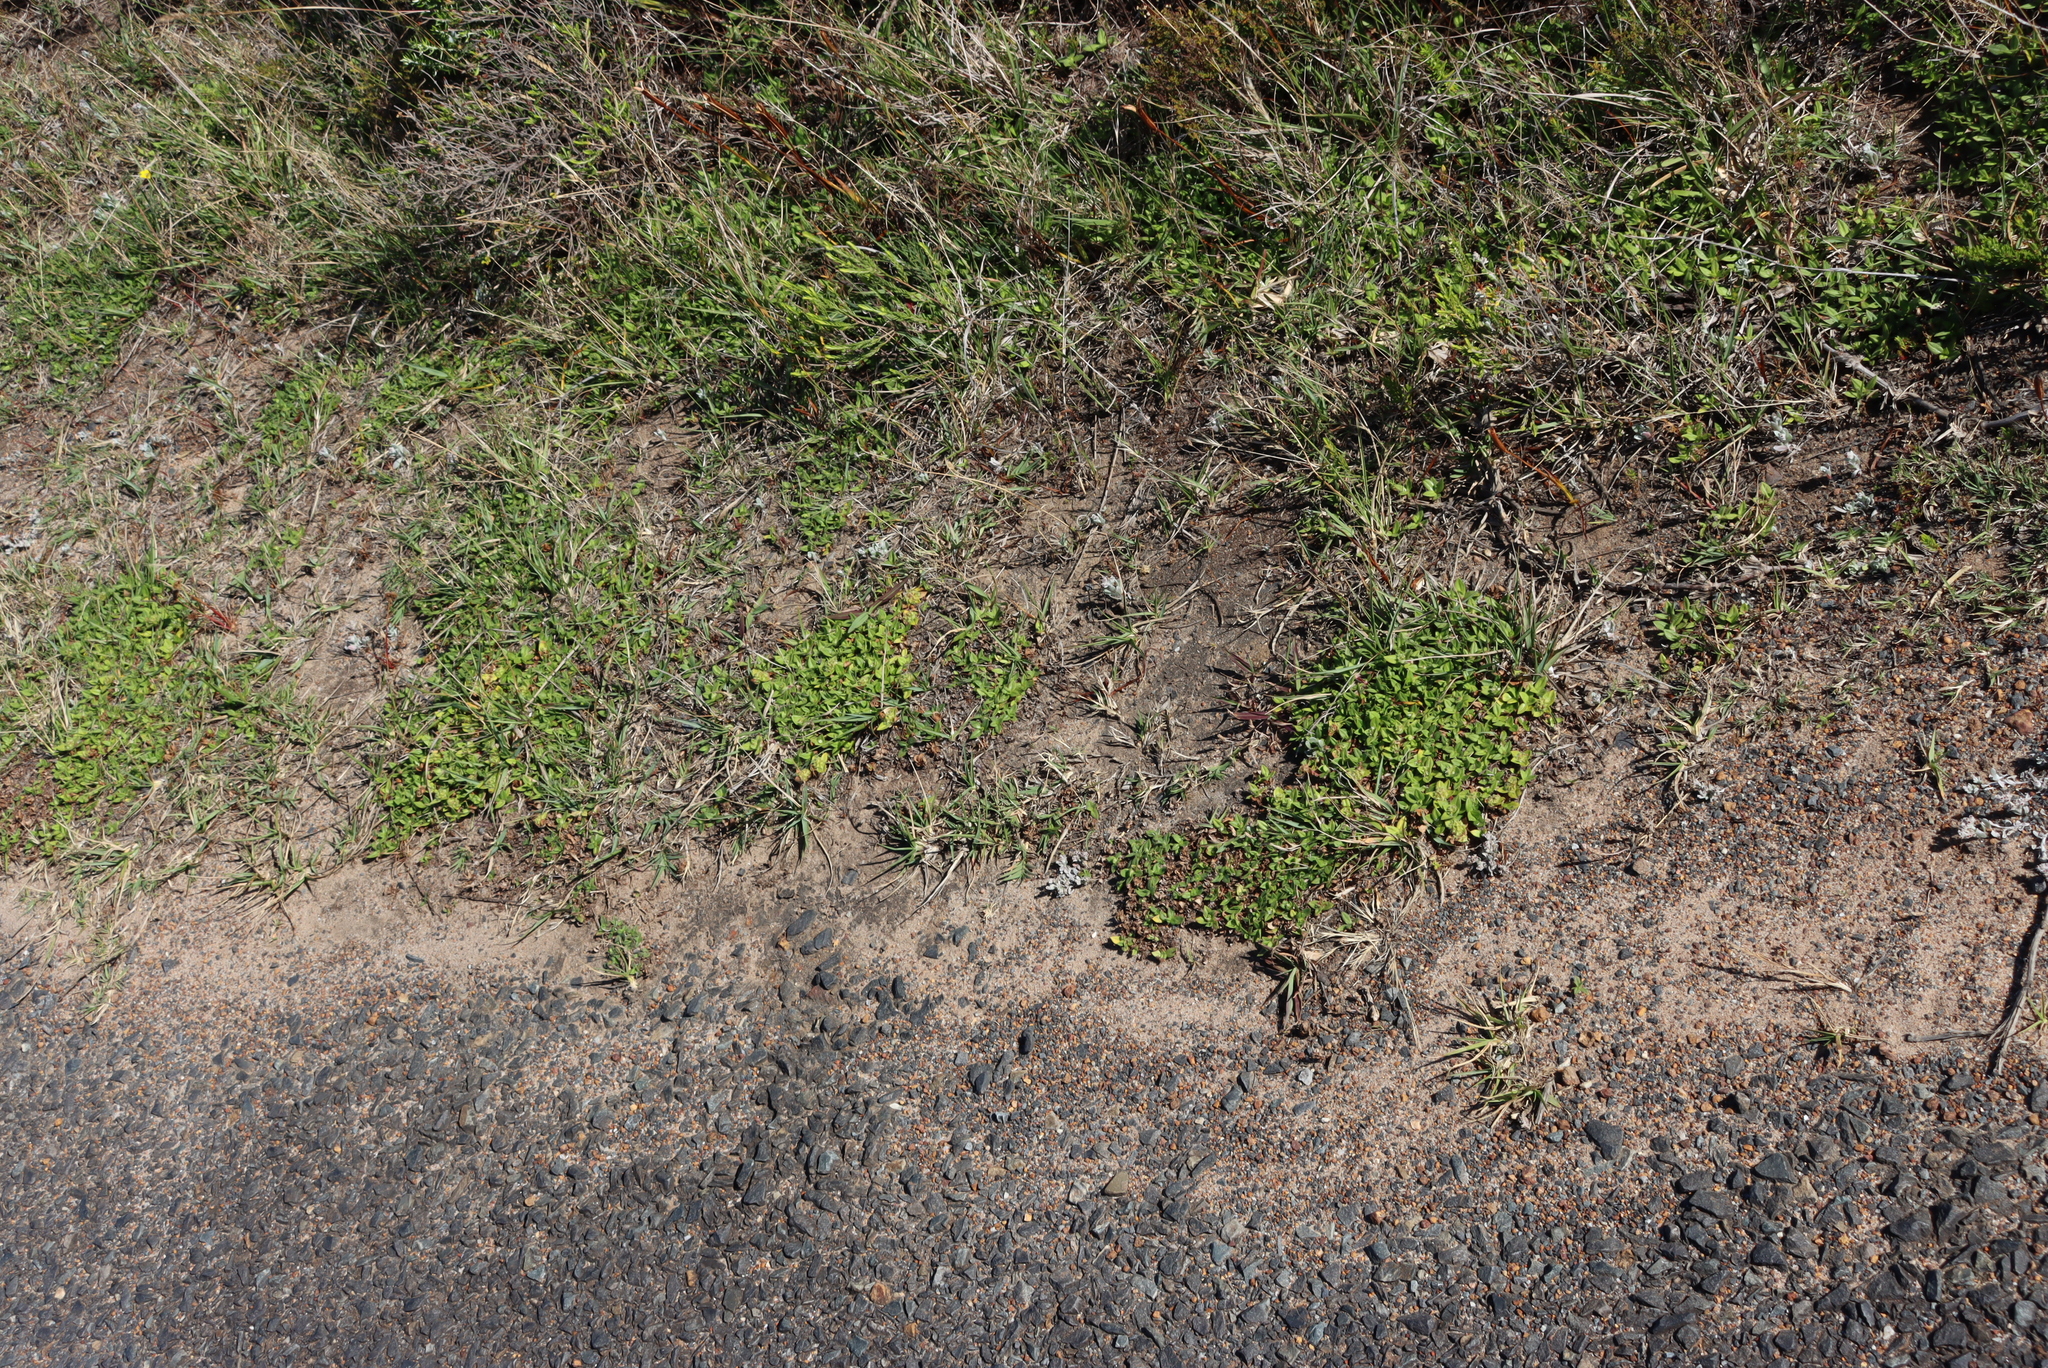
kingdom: Plantae
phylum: Tracheophyta
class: Magnoliopsida
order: Gentianales
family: Rubiaceae
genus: Richardia
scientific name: Richardia brasiliensis
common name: Tropical mexican clover
